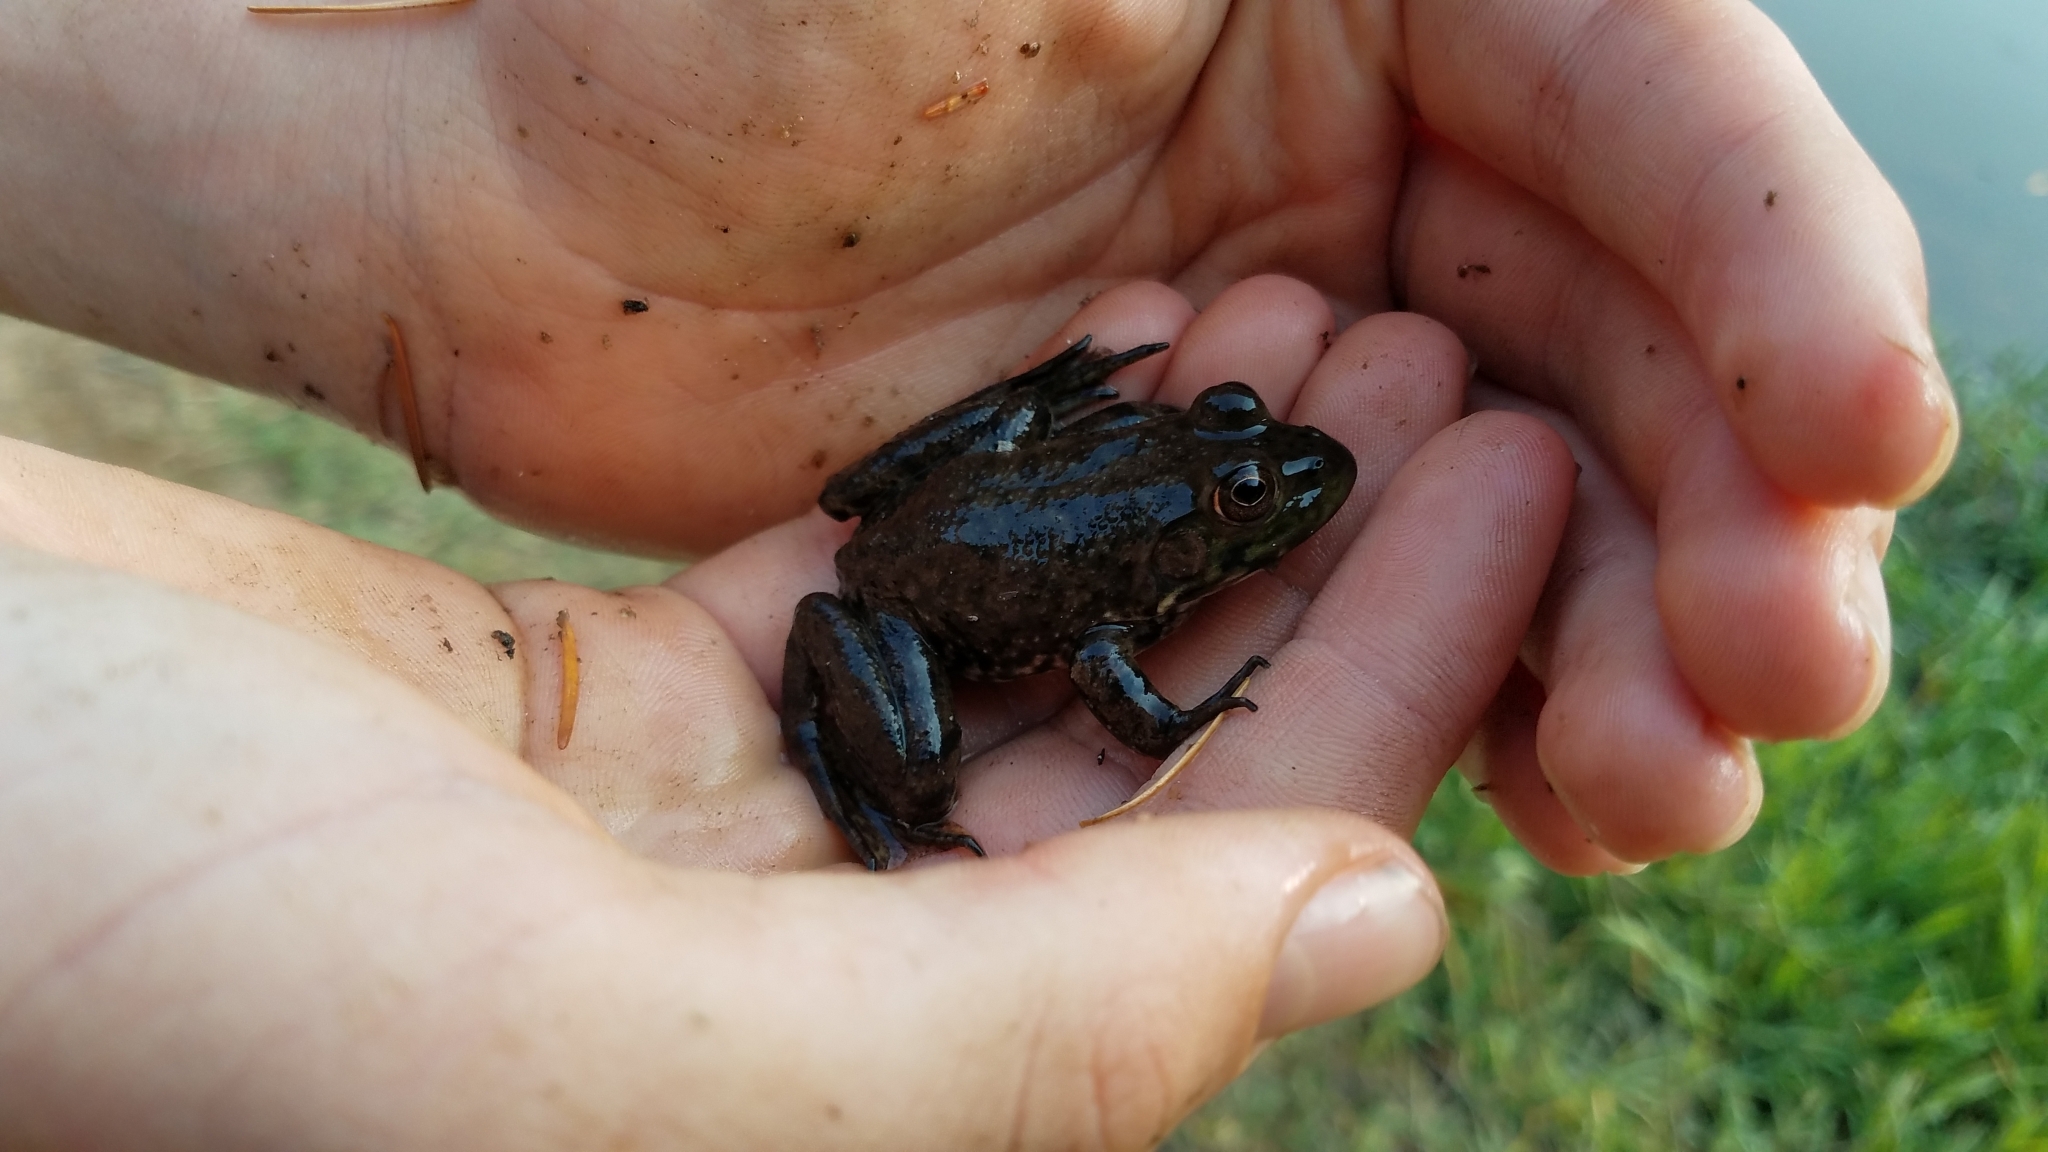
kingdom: Animalia
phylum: Chordata
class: Amphibia
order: Anura
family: Ranidae
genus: Lithobates
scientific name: Lithobates catesbeianus
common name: American bullfrog
